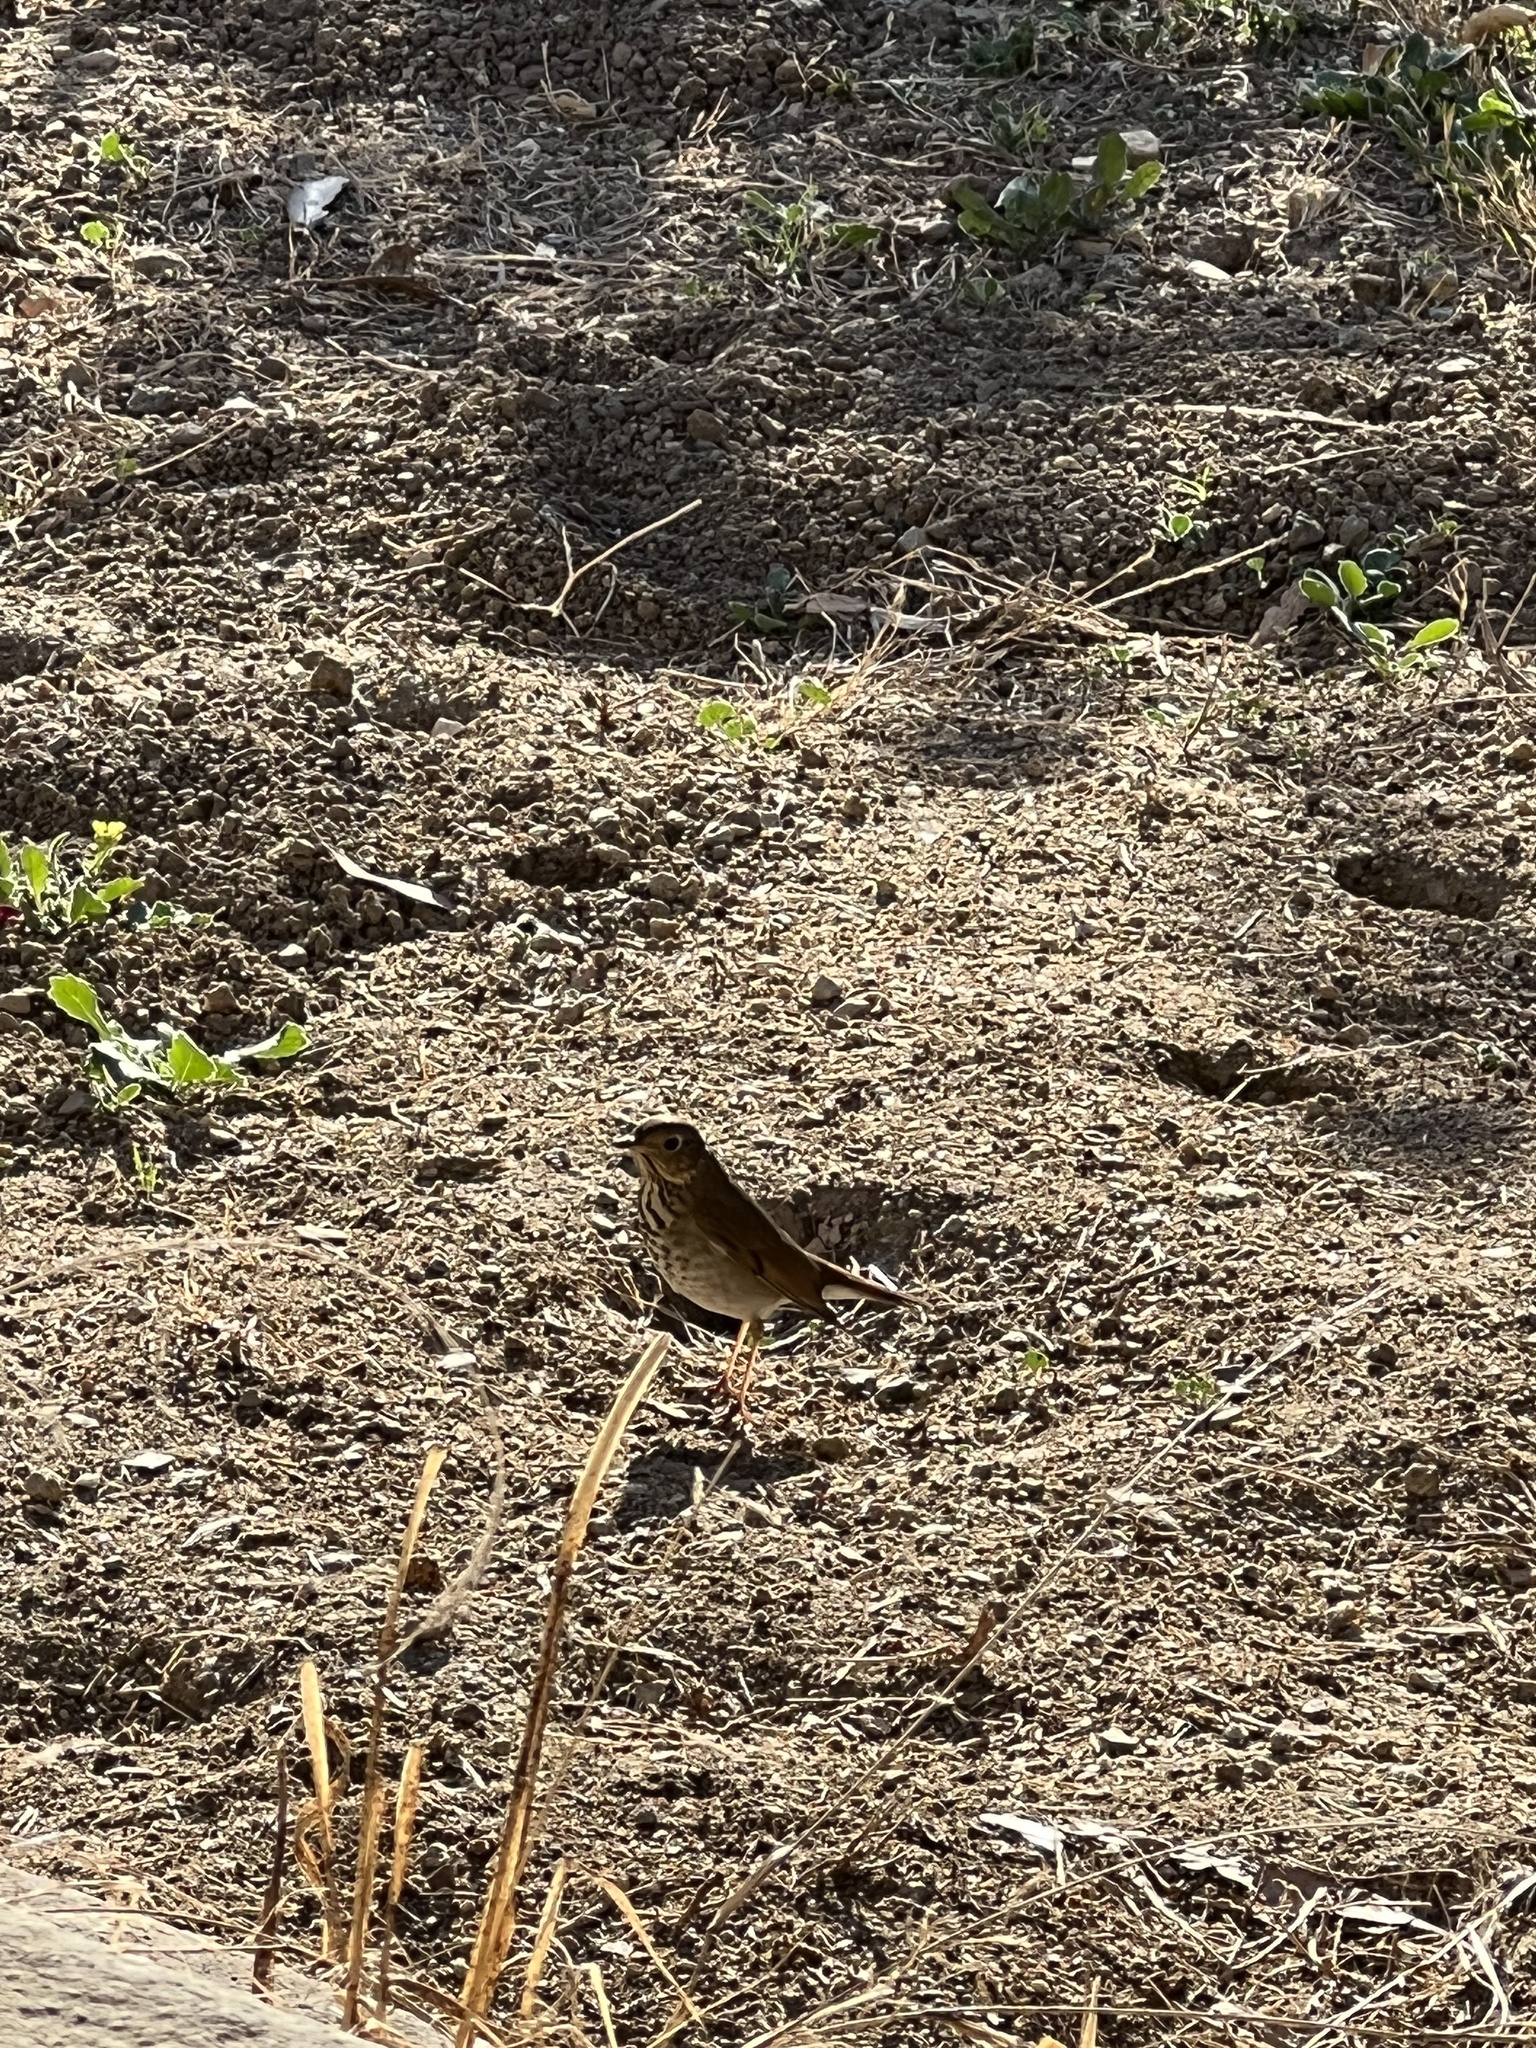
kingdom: Animalia
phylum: Chordata
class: Aves
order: Passeriformes
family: Turdidae
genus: Catharus
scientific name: Catharus ustulatus
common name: Swainson's thrush
